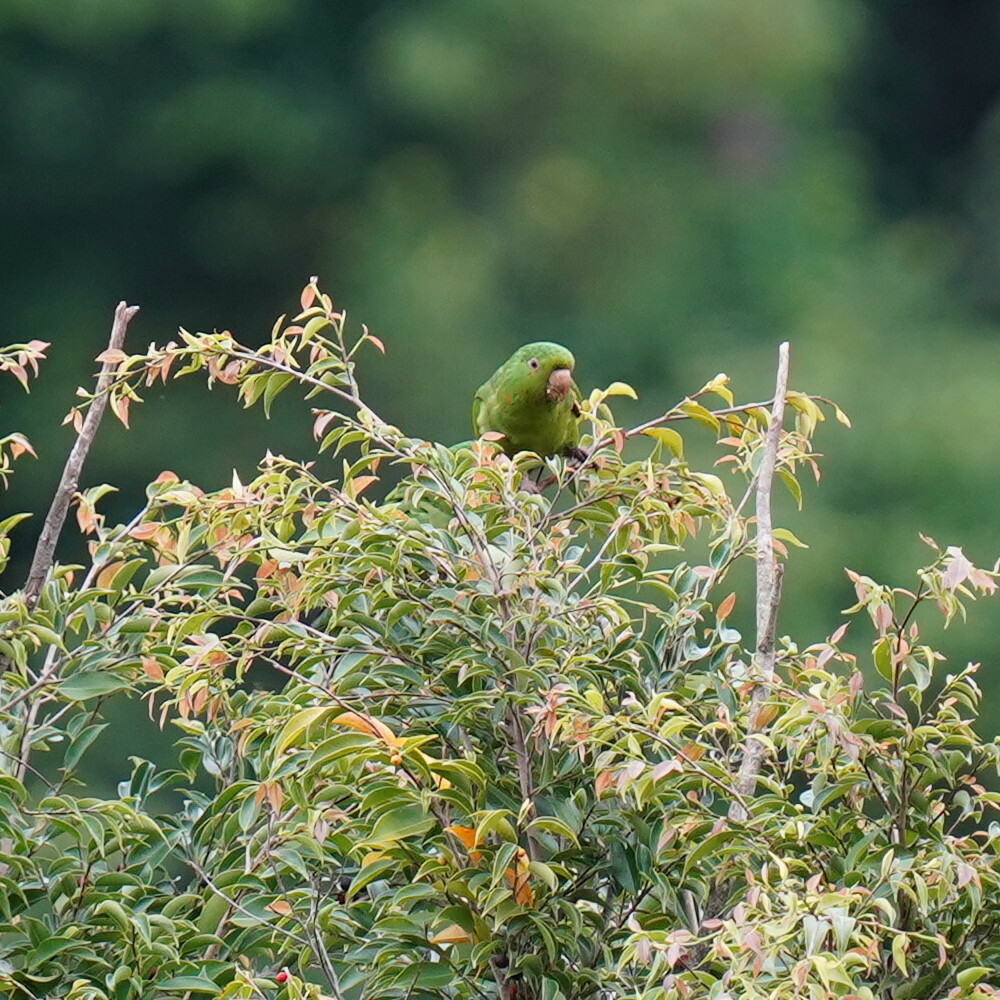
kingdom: Animalia
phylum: Chordata
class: Aves
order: Psittaciformes
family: Psittacidae
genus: Aratinga
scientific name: Aratinga leucophthalma
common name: White-eyed parakeet
